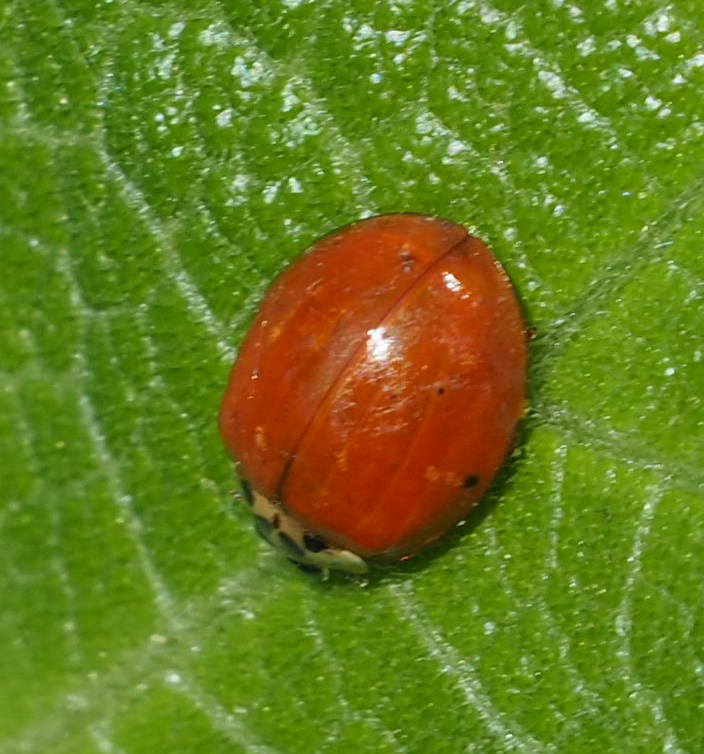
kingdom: Animalia
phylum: Arthropoda
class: Insecta
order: Coleoptera
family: Coccinellidae
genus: Harmonia
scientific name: Harmonia axyridis
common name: Harlequin ladybird
